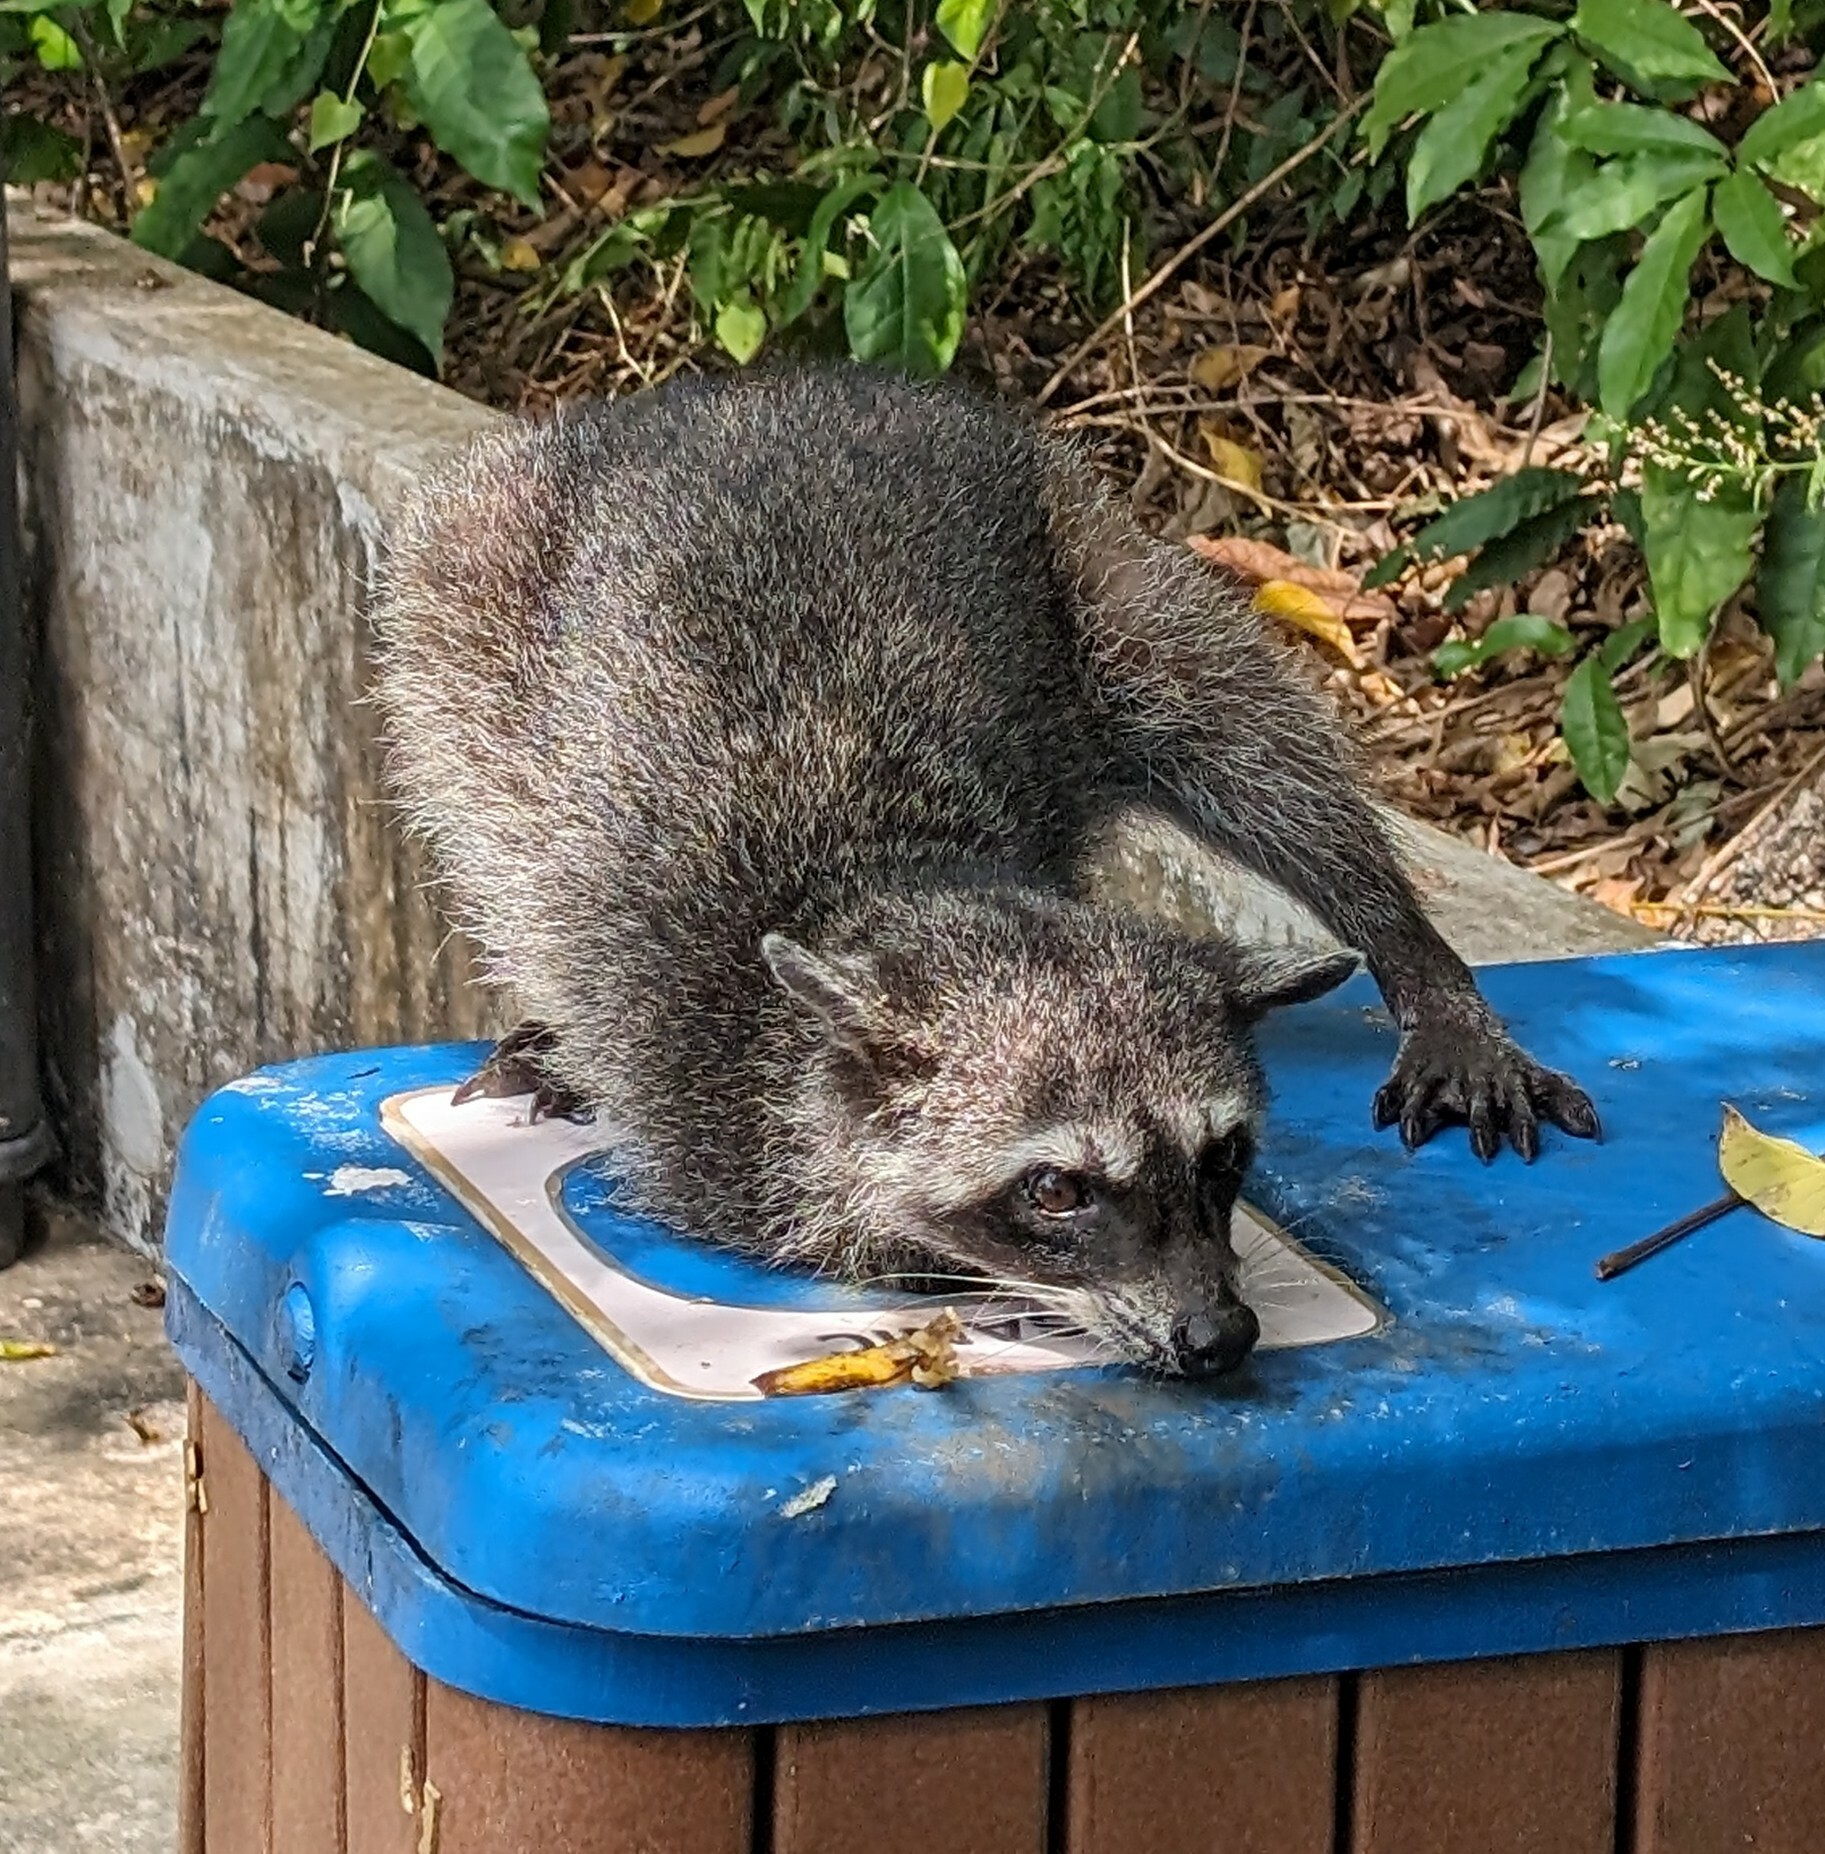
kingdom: Animalia
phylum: Chordata
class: Mammalia
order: Carnivora
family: Procyonidae
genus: Procyon
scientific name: Procyon lotor
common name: Raccoon
